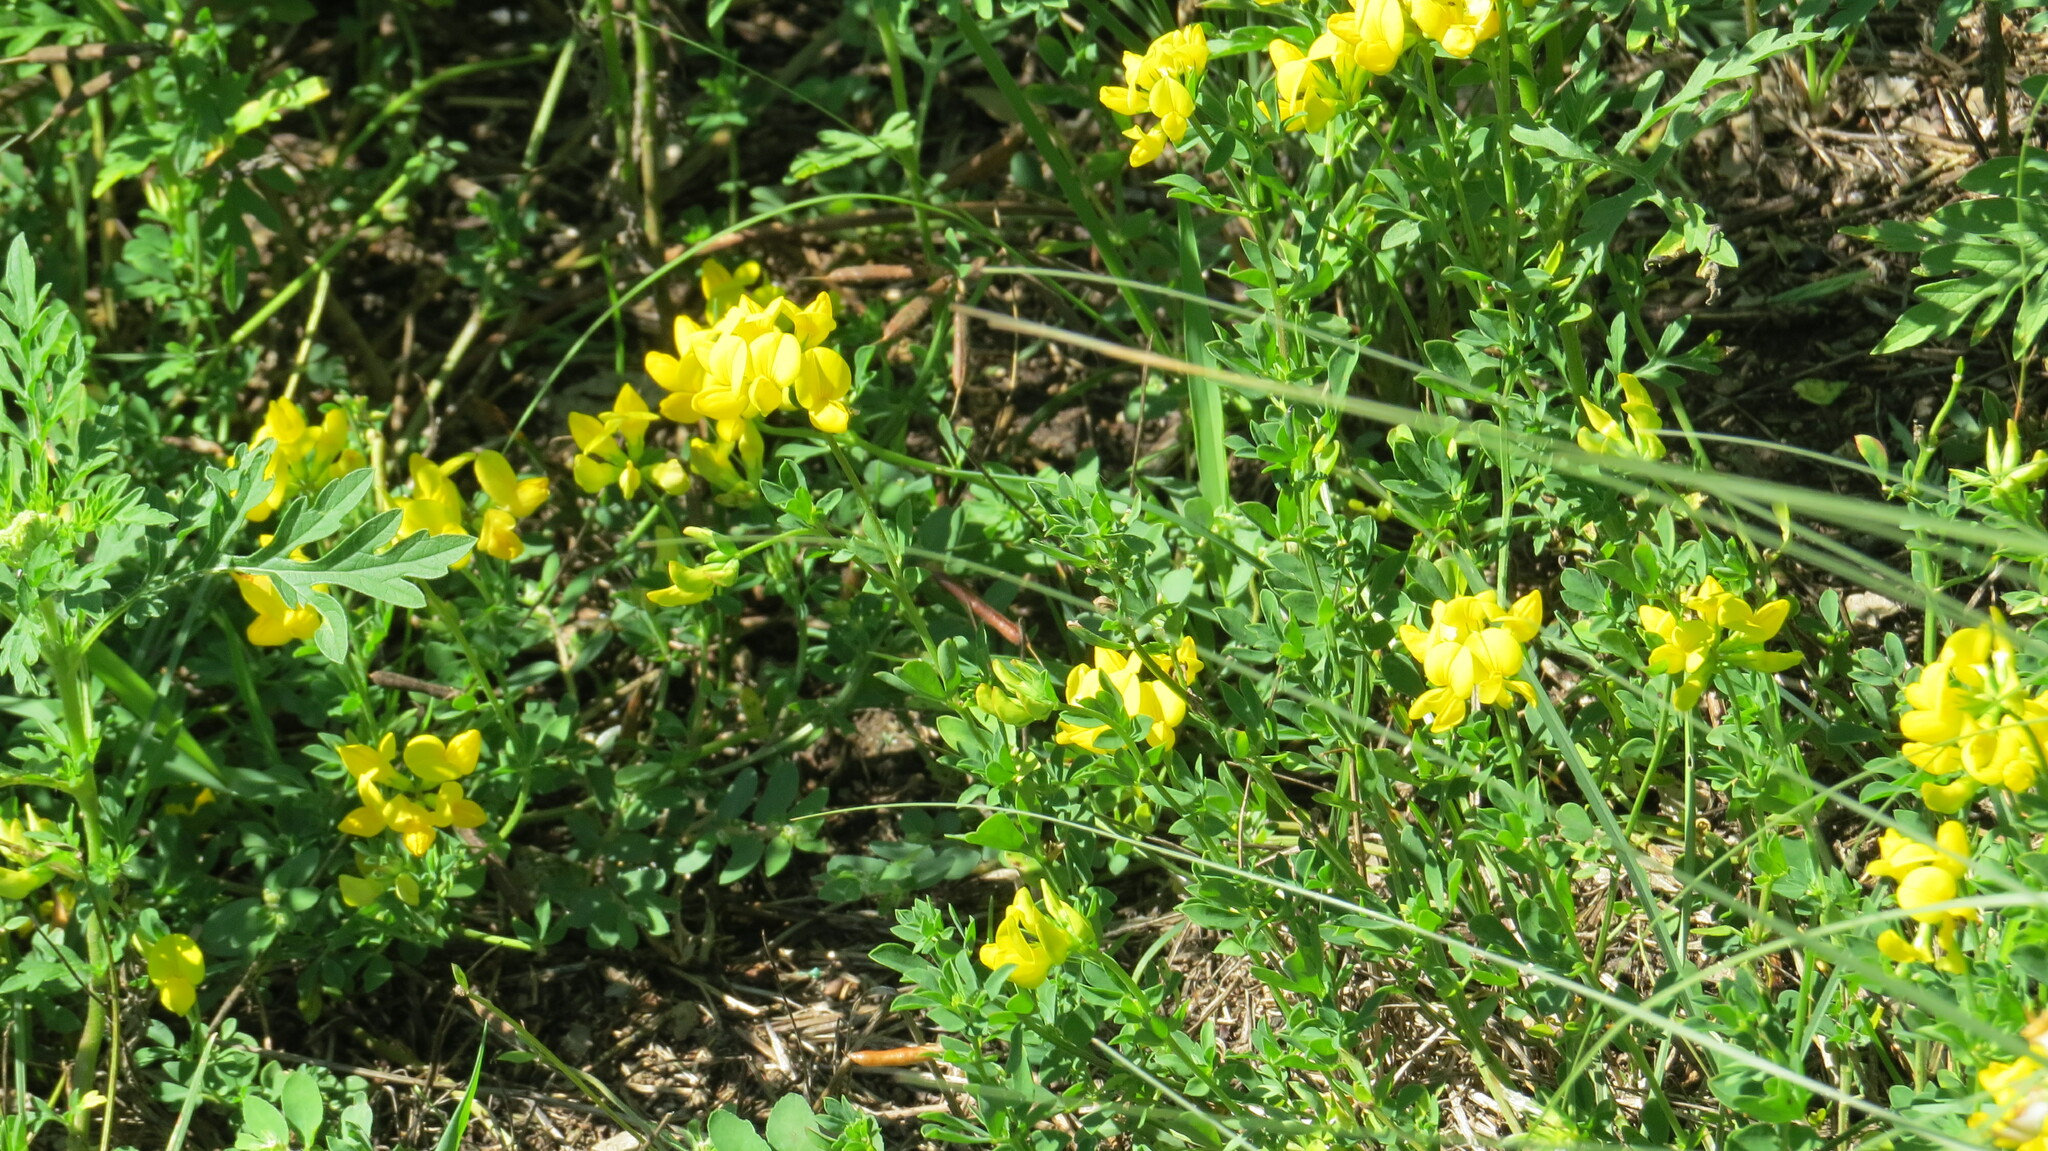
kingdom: Plantae
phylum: Tracheophyta
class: Magnoliopsida
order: Fabales
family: Fabaceae
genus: Lotus
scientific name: Lotus corniculatus
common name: Common bird's-foot-trefoil
